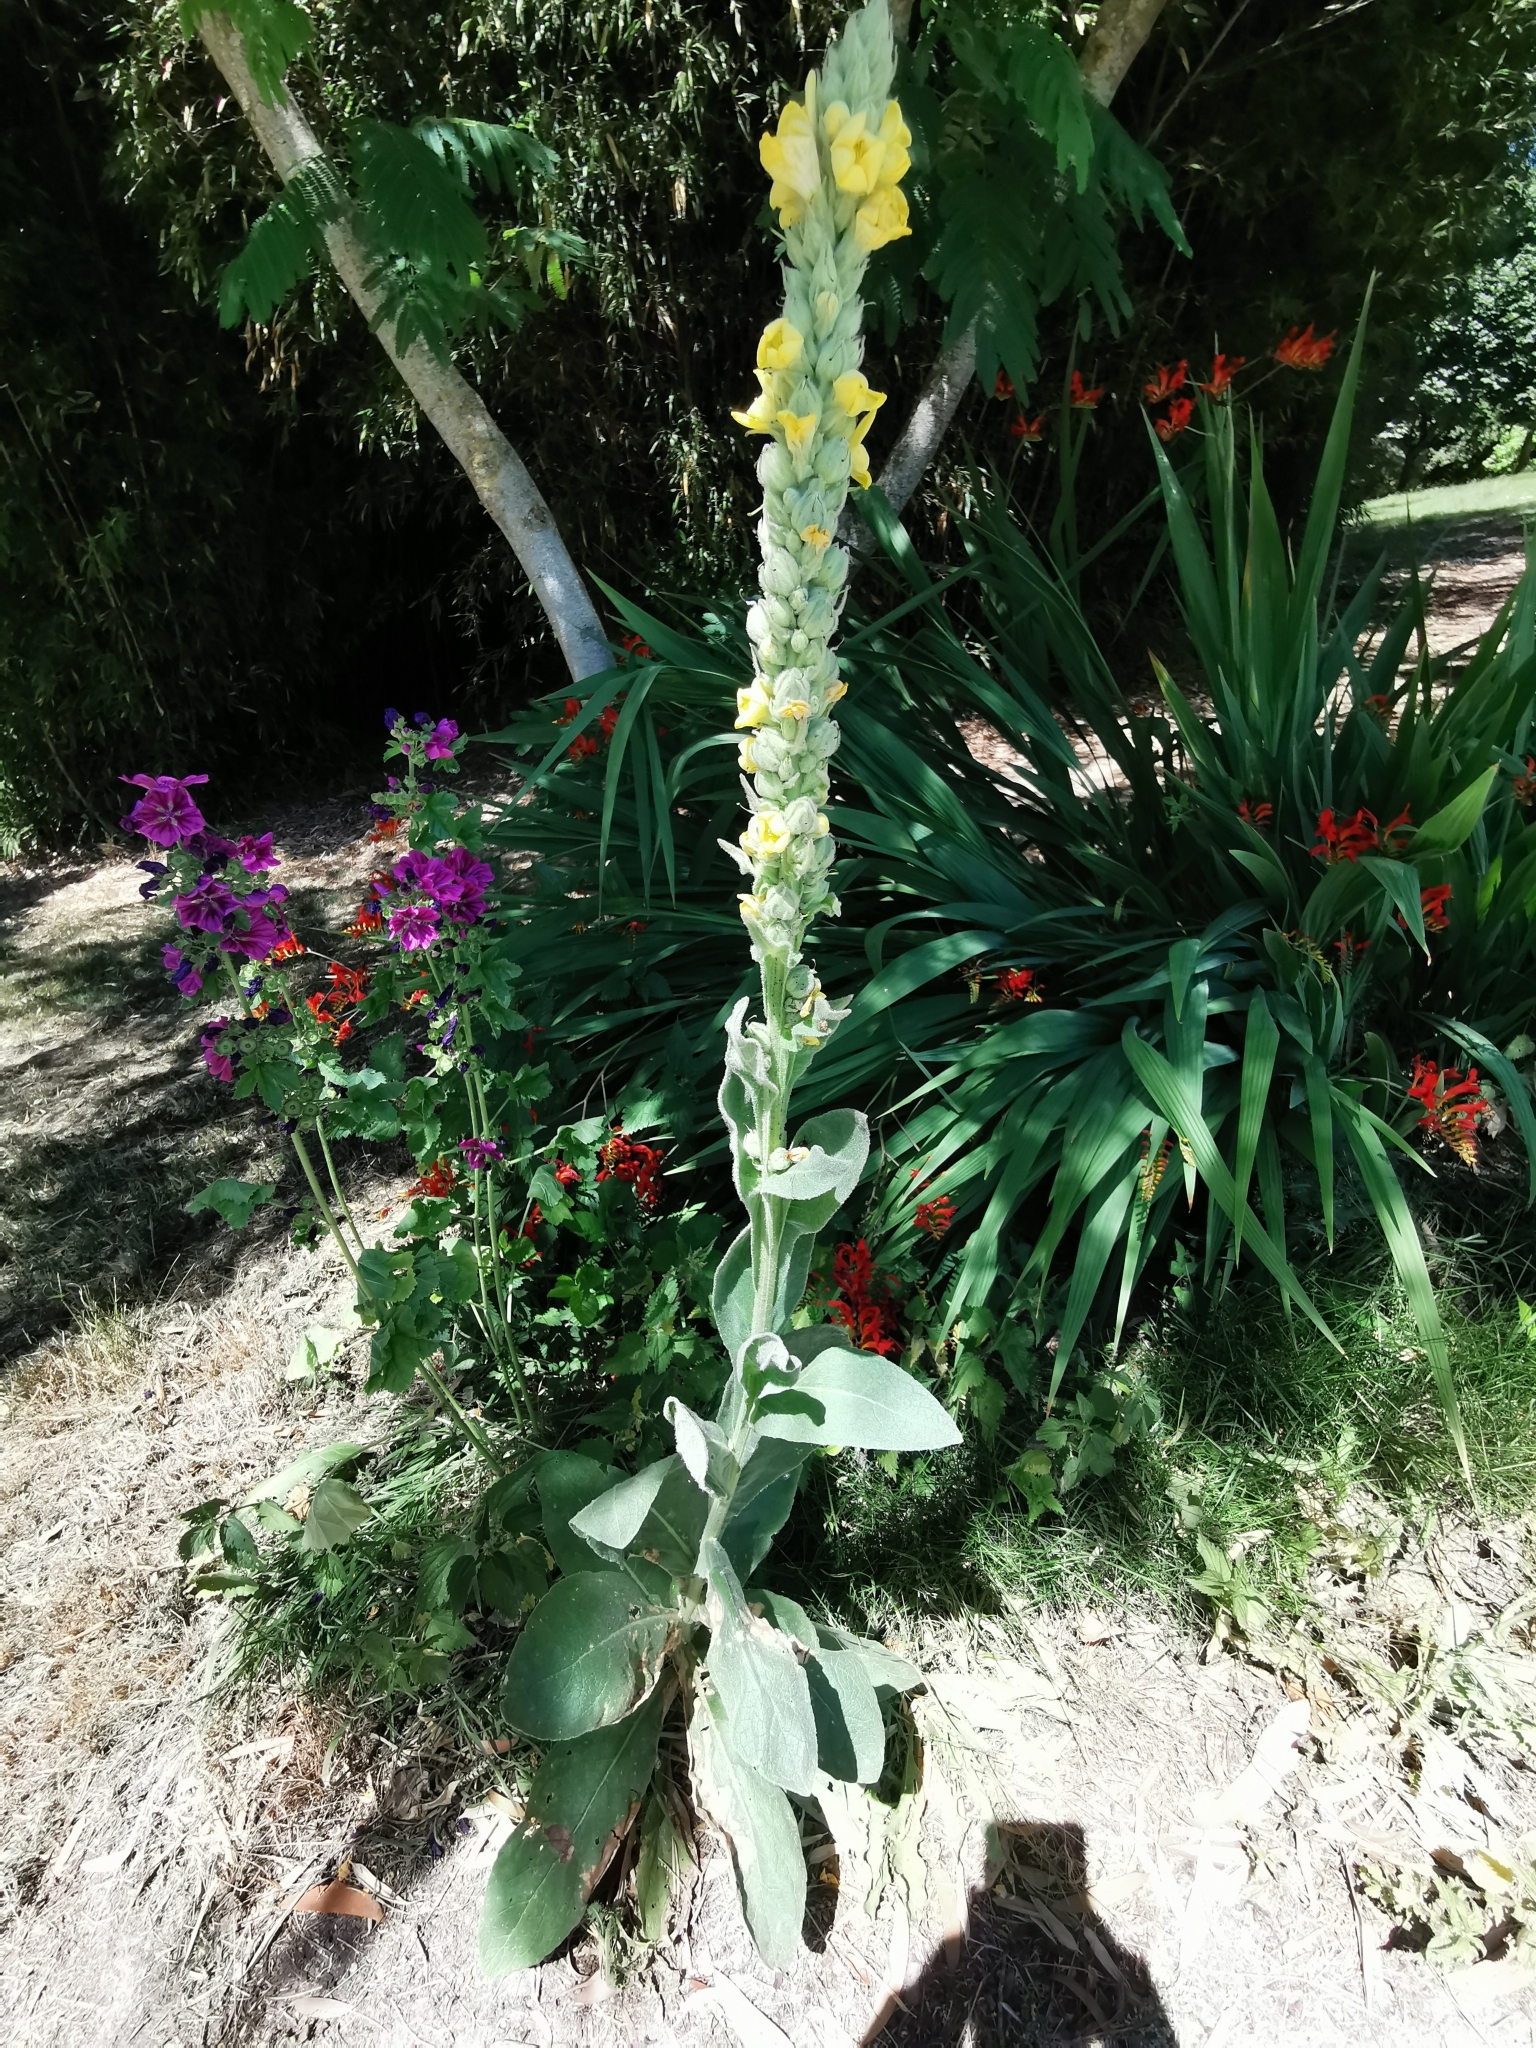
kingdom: Plantae
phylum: Tracheophyta
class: Magnoliopsida
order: Lamiales
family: Scrophulariaceae
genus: Verbascum
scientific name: Verbascum thapsus
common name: Common mullein
